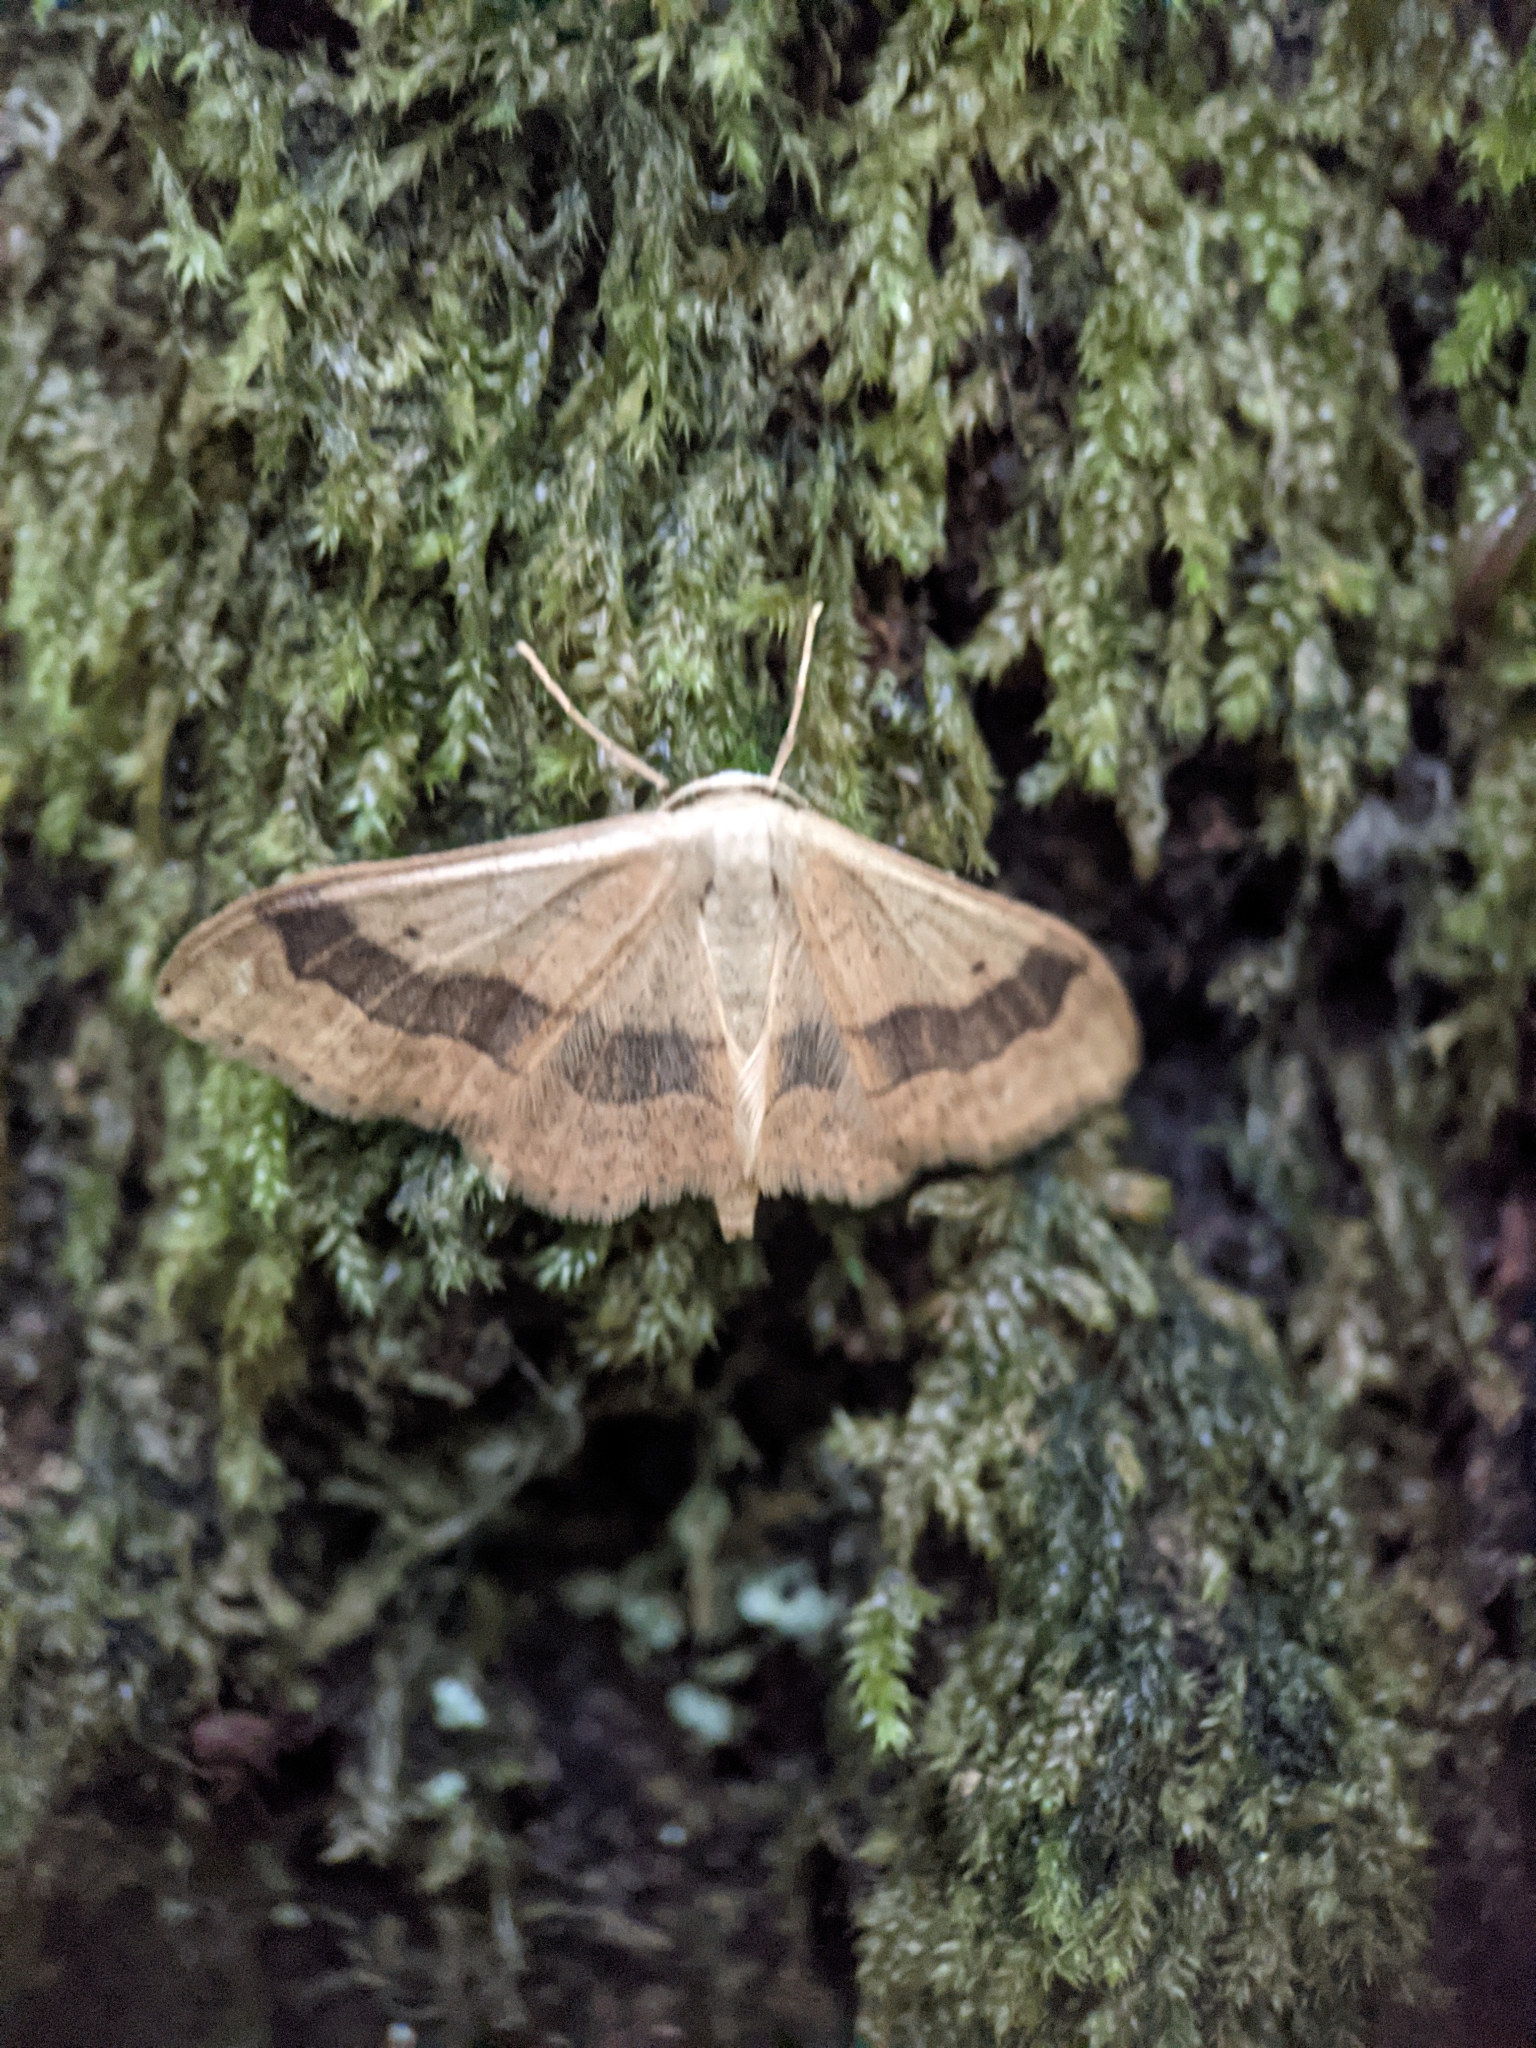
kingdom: Animalia
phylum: Arthropoda
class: Insecta
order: Lepidoptera
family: Geometridae
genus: Idaea
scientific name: Idaea aversata
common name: Riband wave
